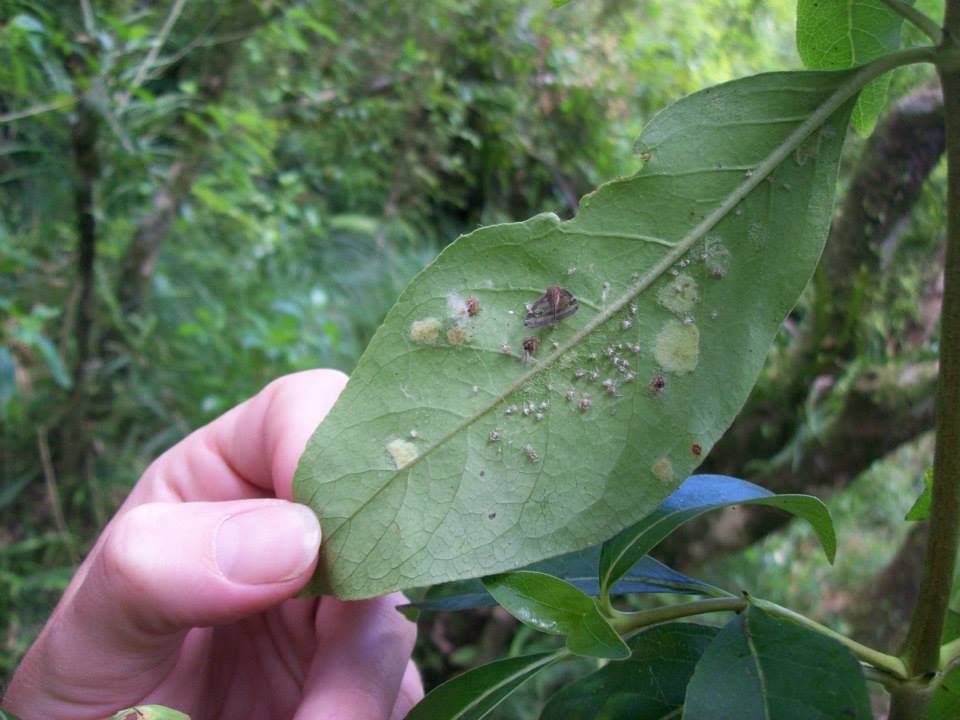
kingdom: Animalia
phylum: Arthropoda
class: Insecta
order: Hemiptera
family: Ricaniidae
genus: Scolypopa
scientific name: Scolypopa australis
